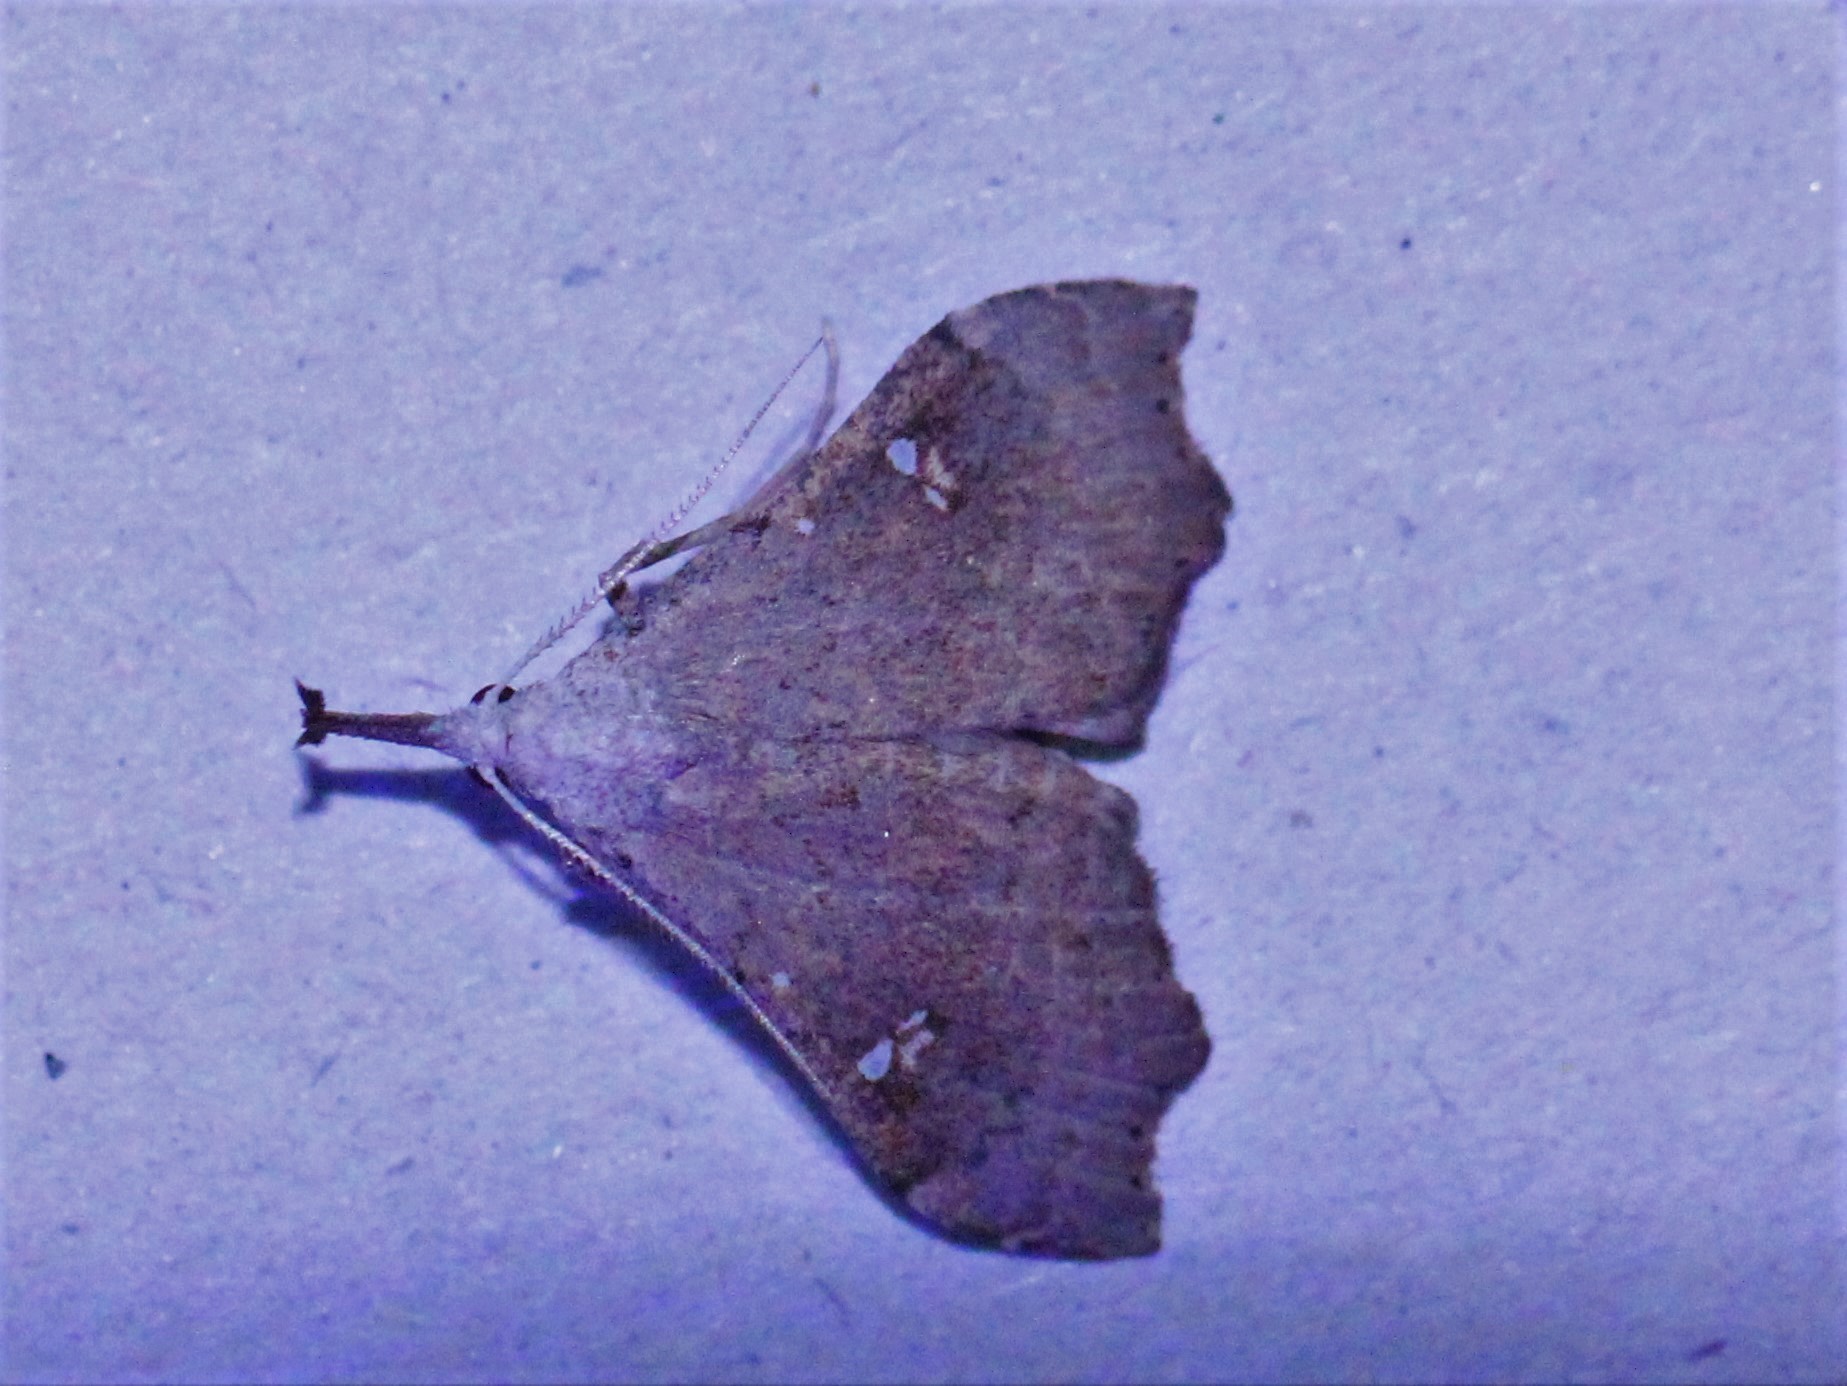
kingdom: Animalia
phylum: Arthropoda
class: Insecta
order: Lepidoptera
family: Erebidae
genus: Redectis
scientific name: Redectis vitrea
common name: White-spotted redectis
